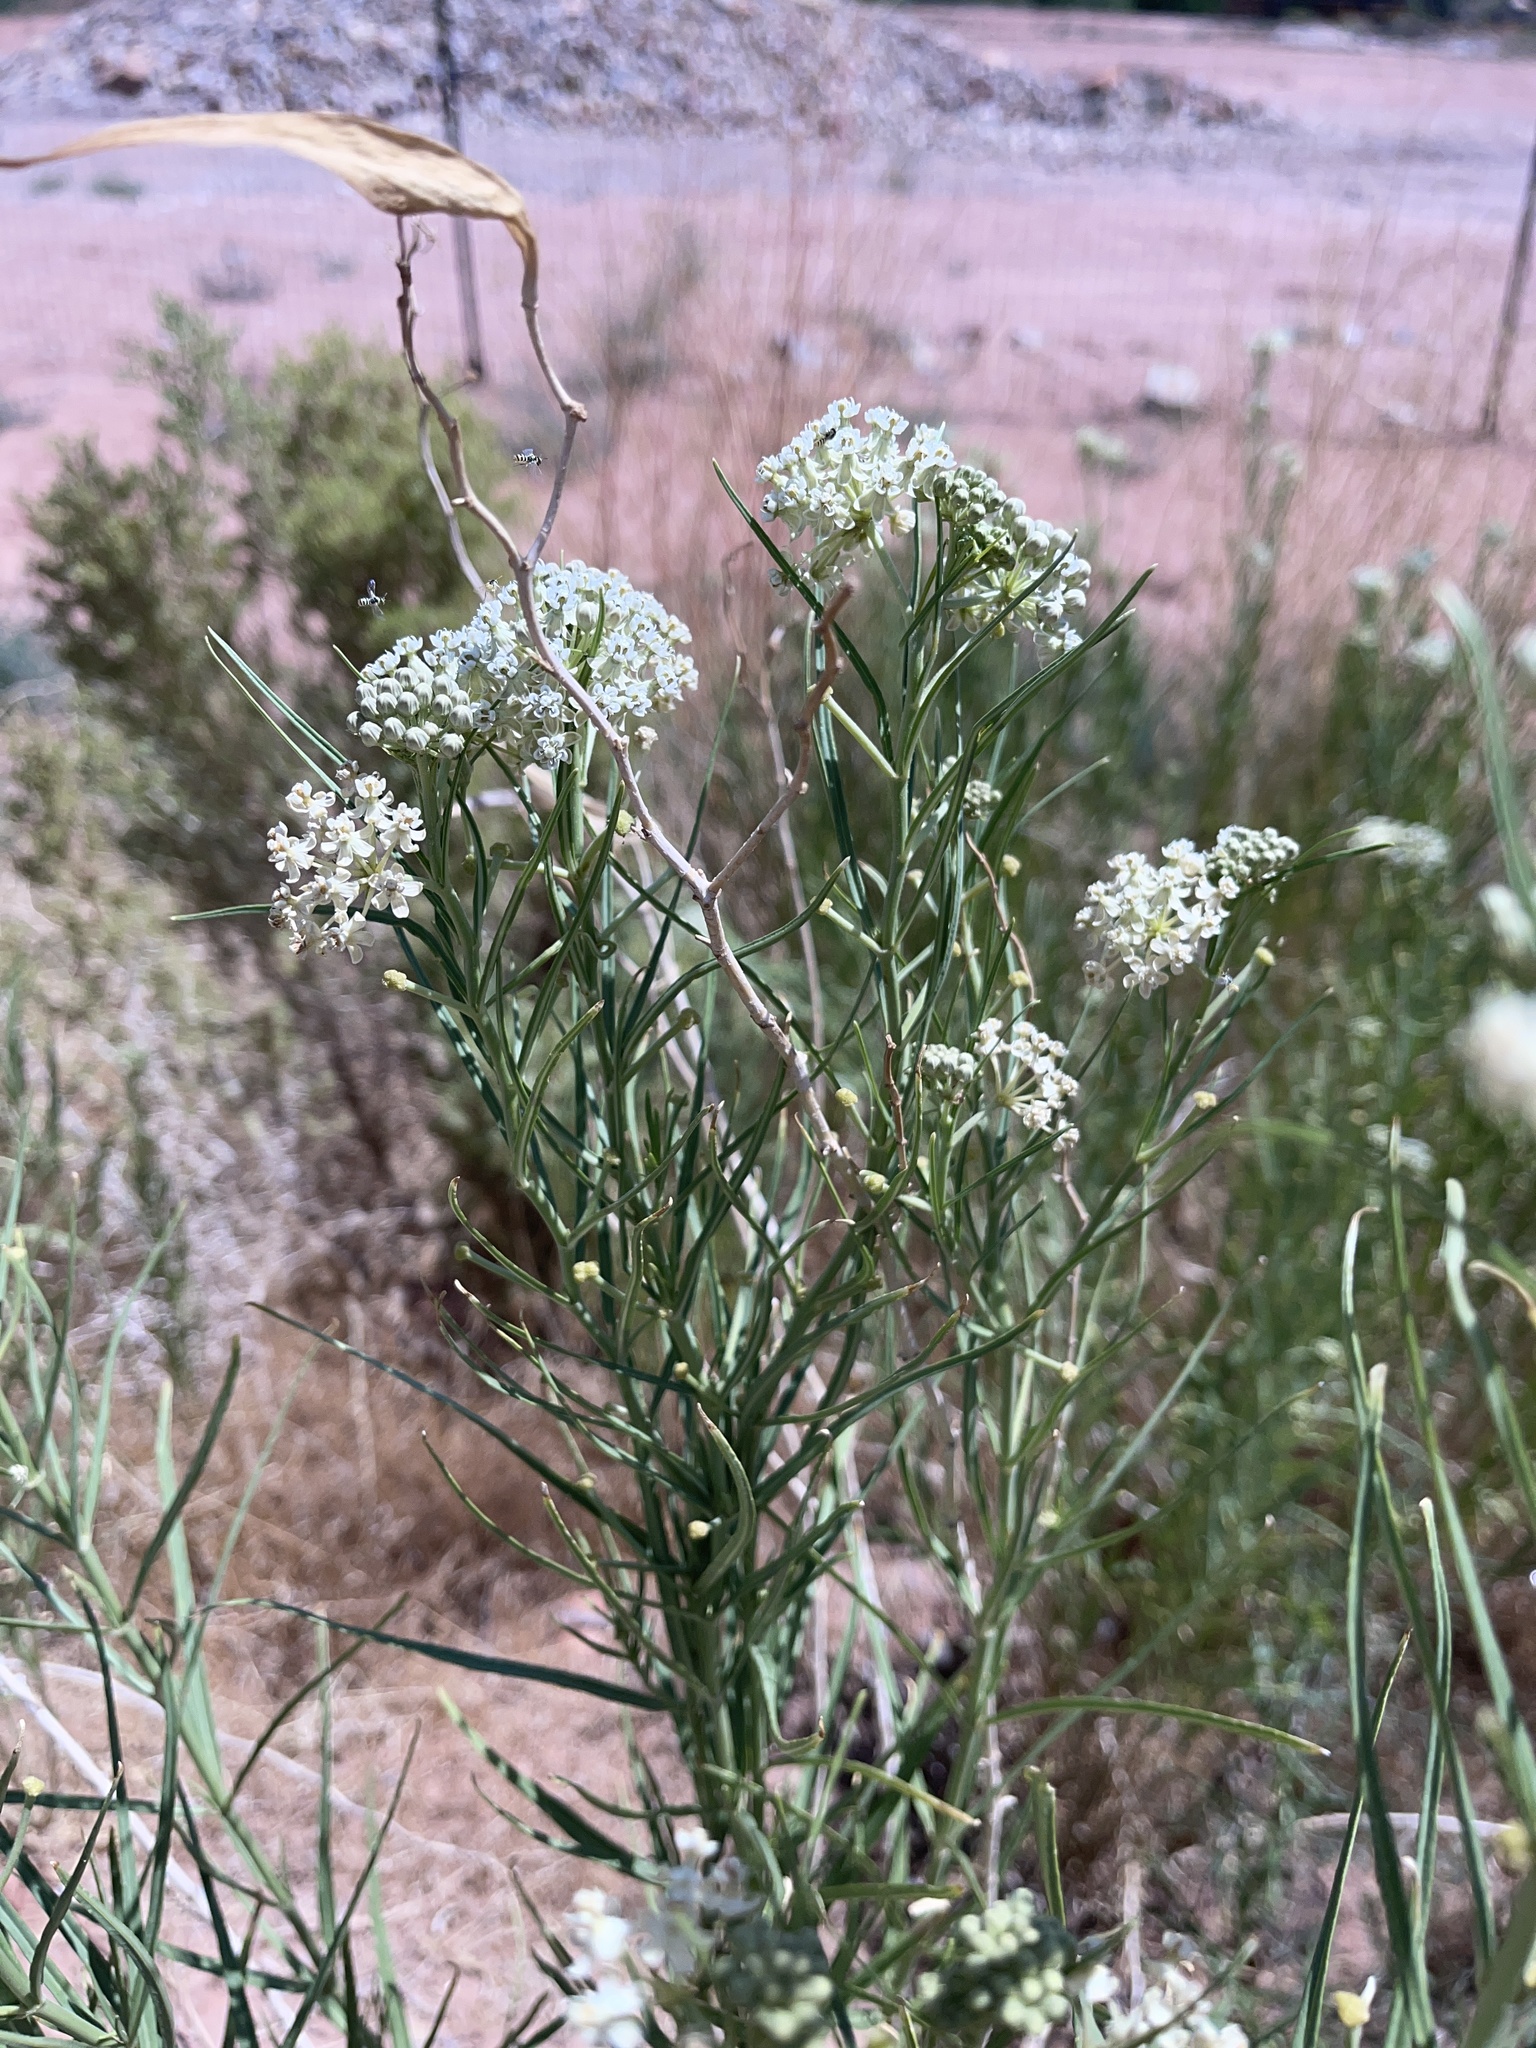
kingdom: Plantae
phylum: Tracheophyta
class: Magnoliopsida
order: Gentianales
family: Apocynaceae
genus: Asclepias
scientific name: Asclepias subverticillata
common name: Horsetail milkweed
